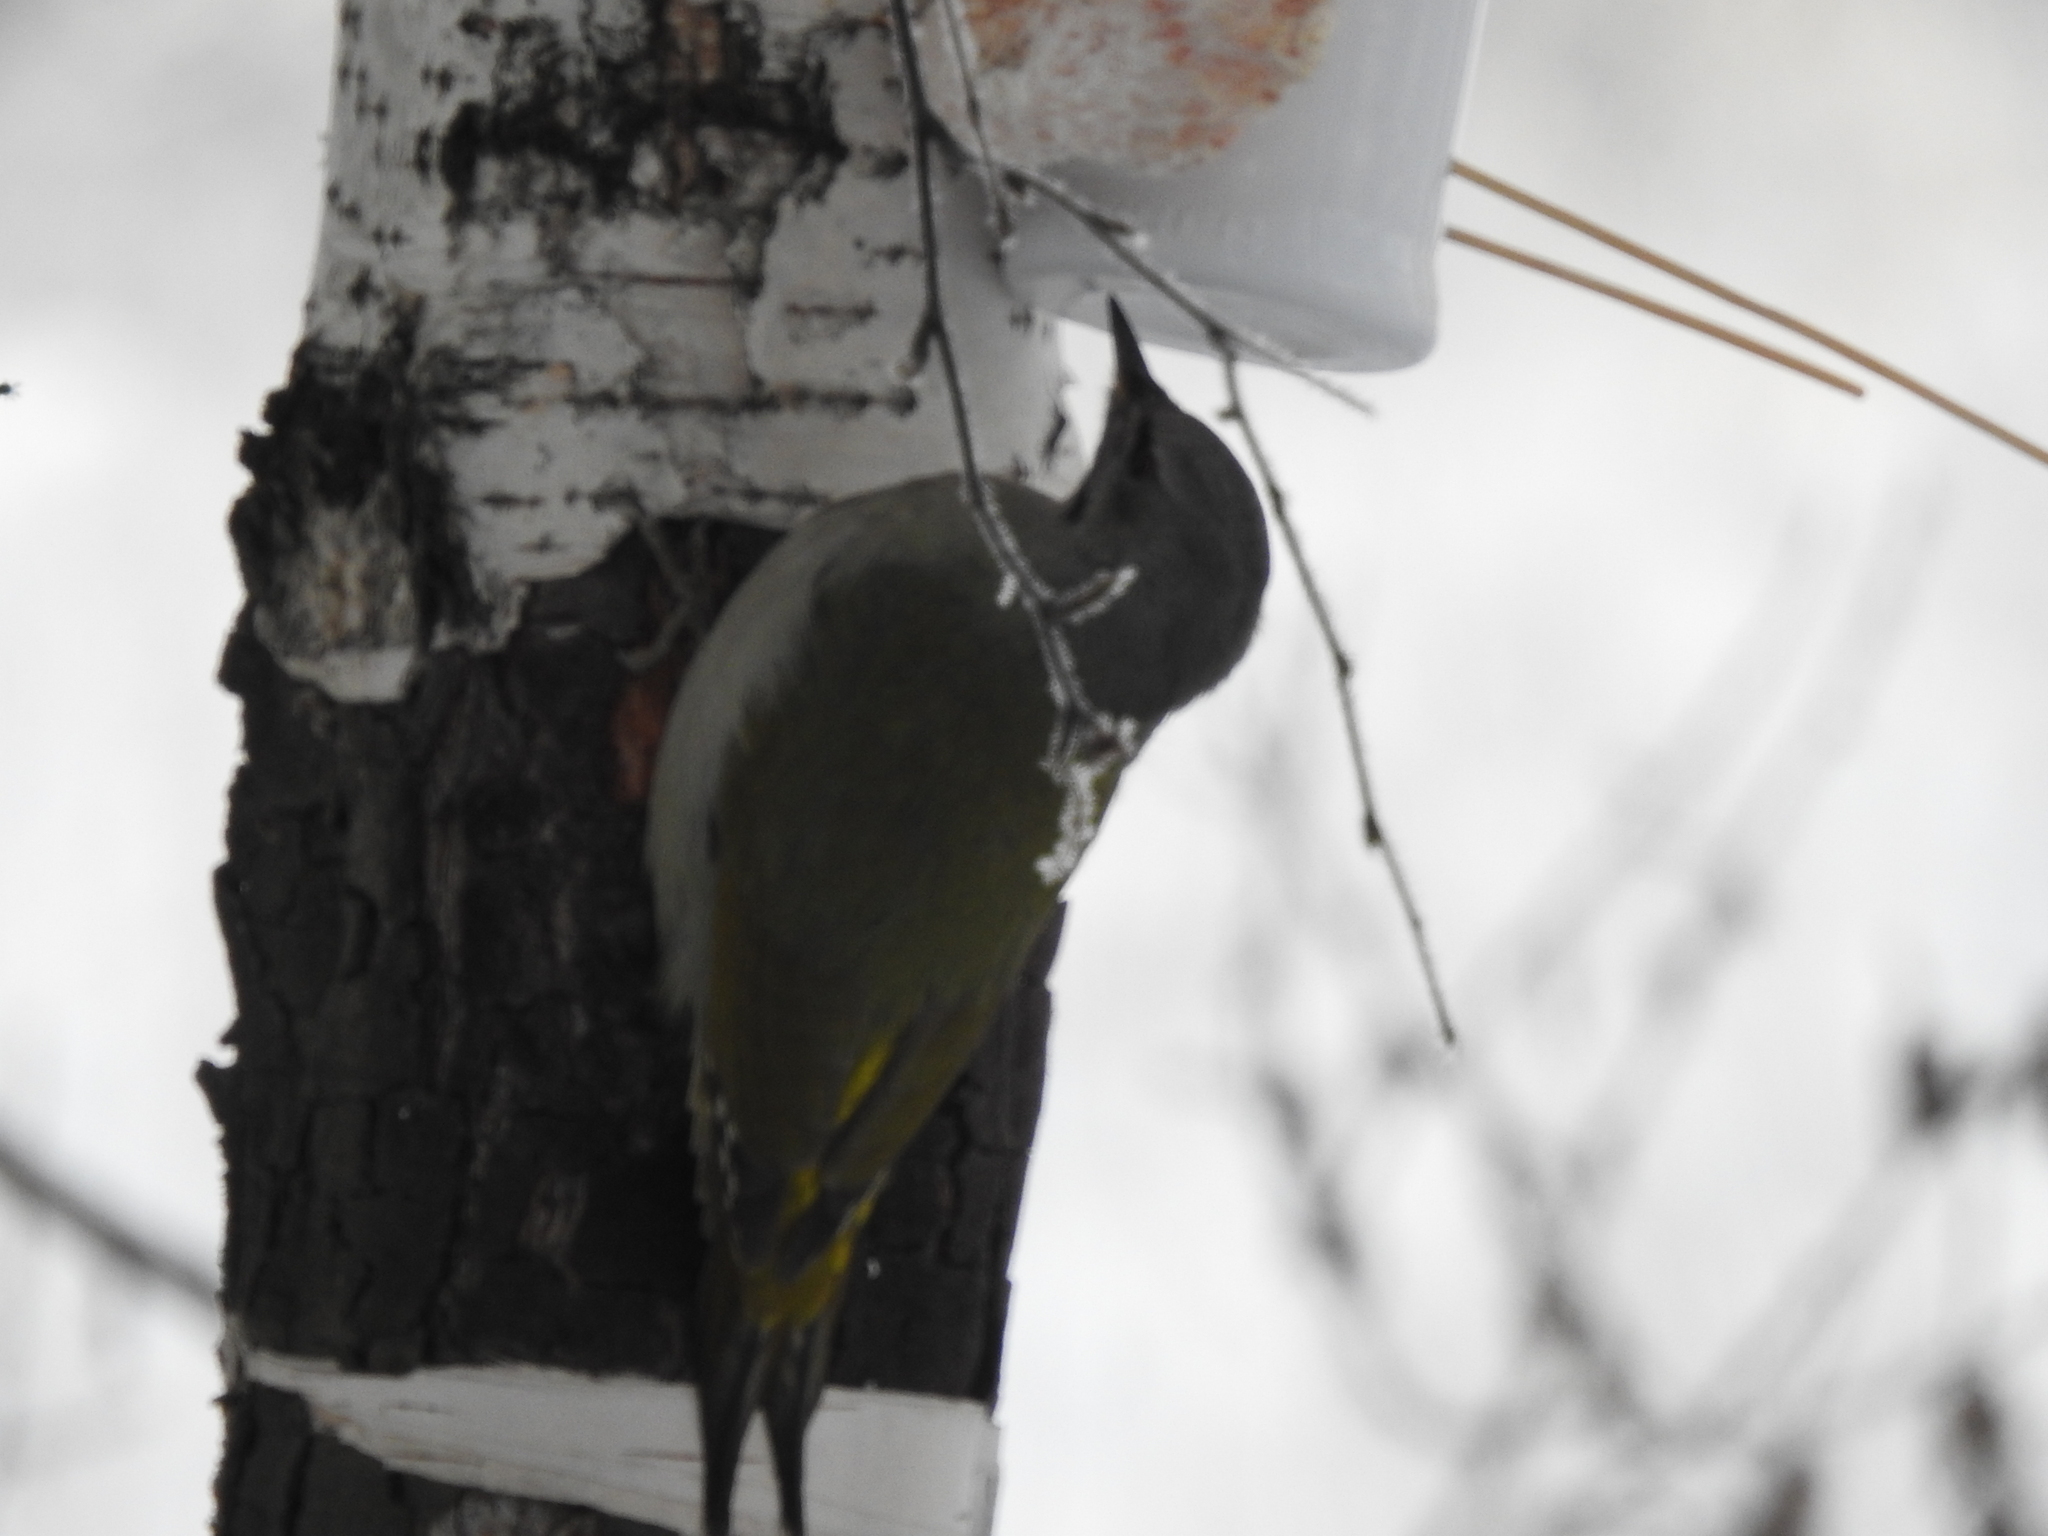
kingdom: Animalia
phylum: Chordata
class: Aves
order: Piciformes
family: Picidae
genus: Picus
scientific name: Picus canus
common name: Grey-headed woodpecker
